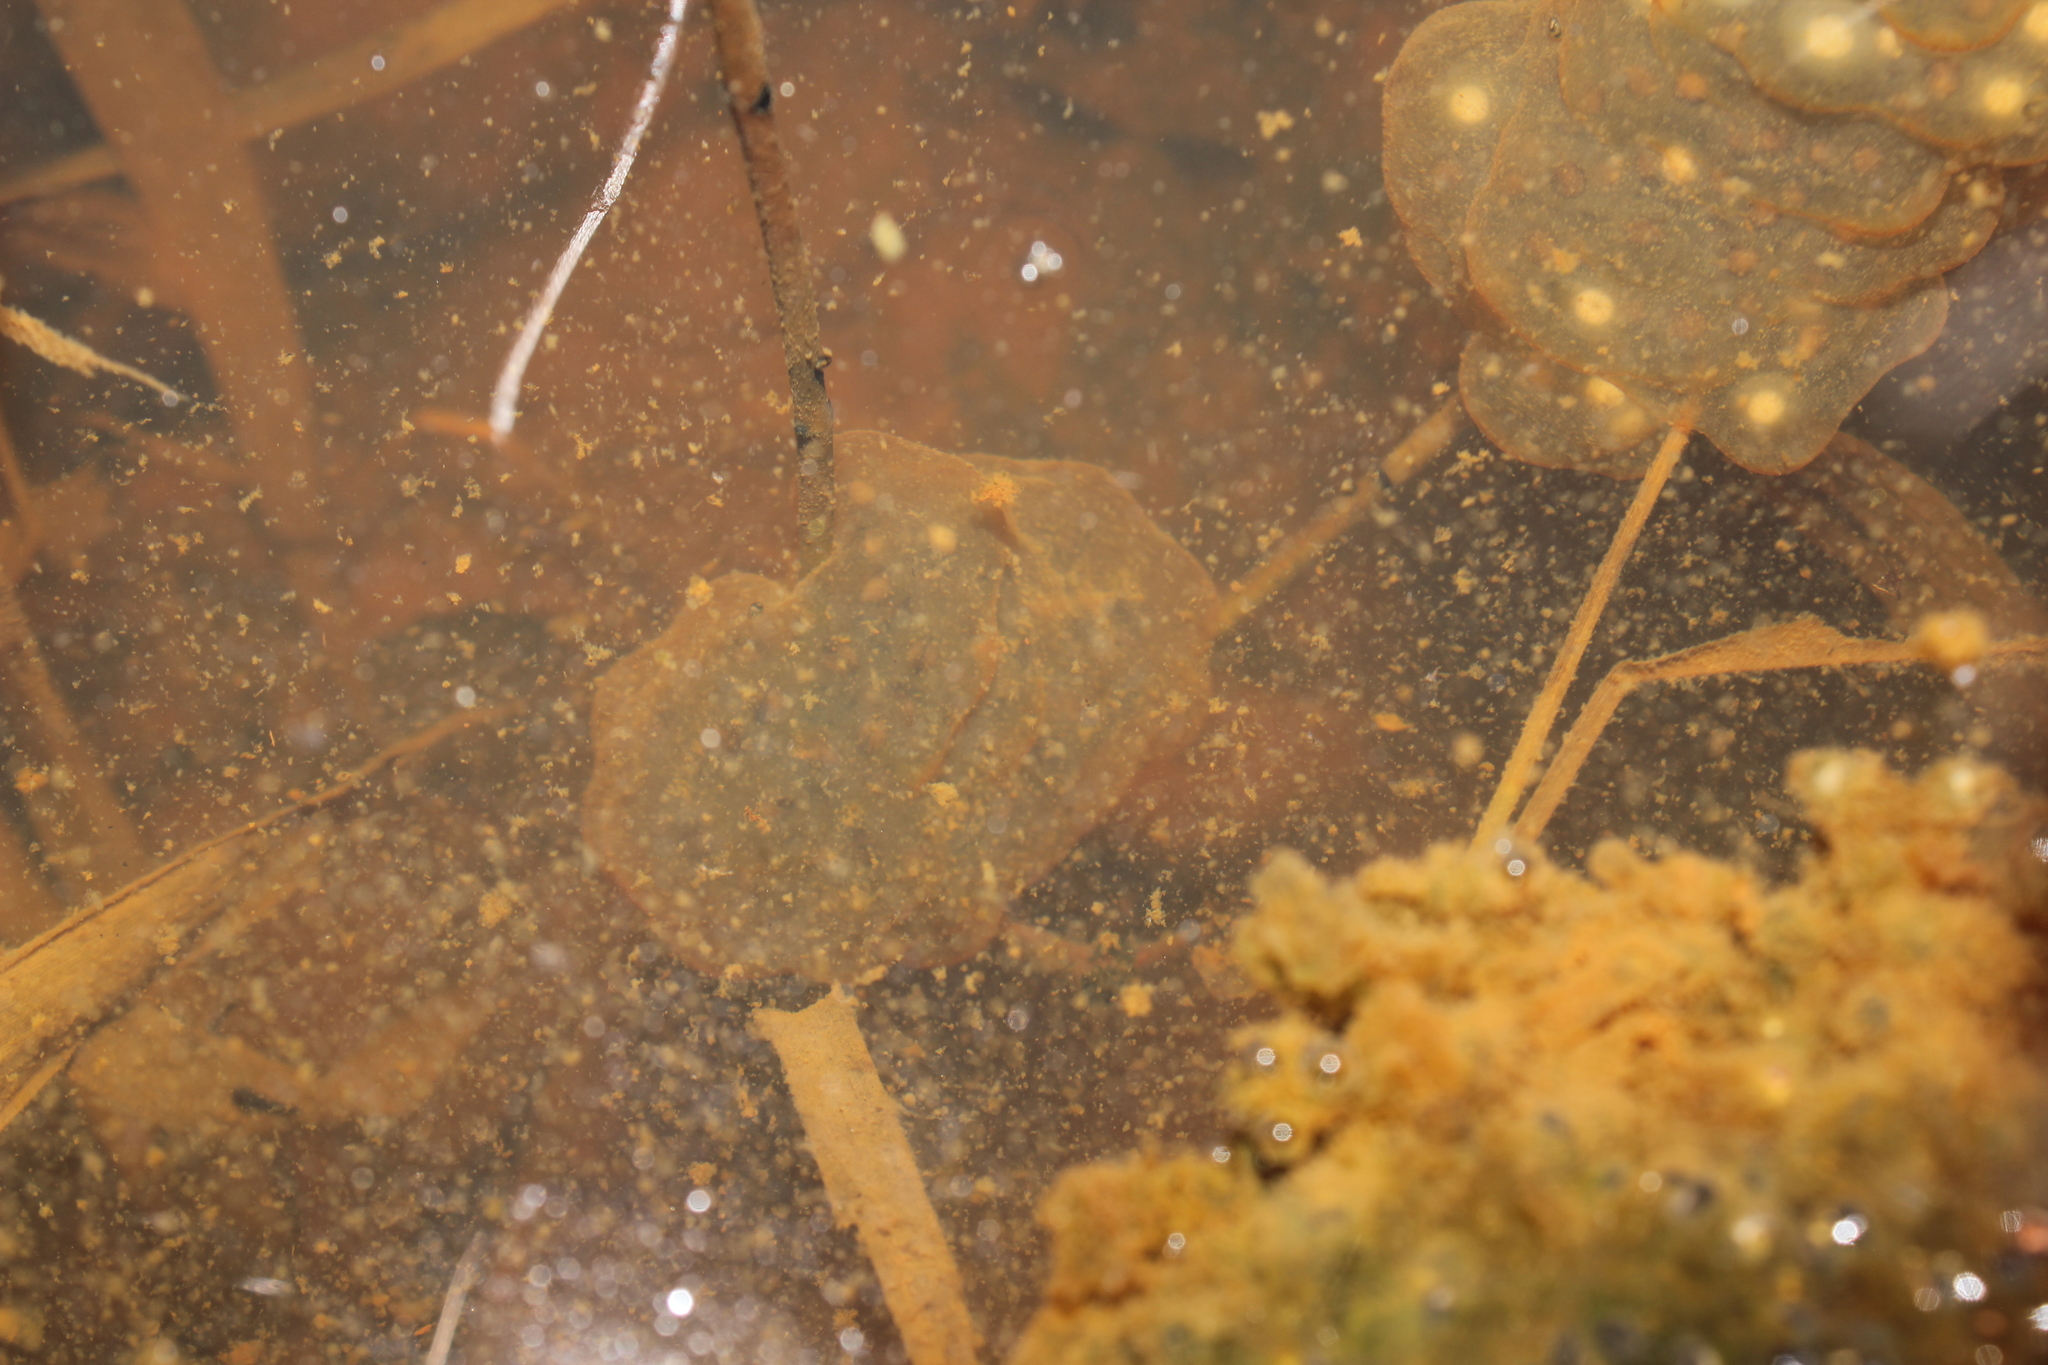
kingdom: Animalia
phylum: Chordata
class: Amphibia
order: Caudata
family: Ambystomatidae
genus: Ambystoma
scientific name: Ambystoma maculatum
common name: Spotted salamander
